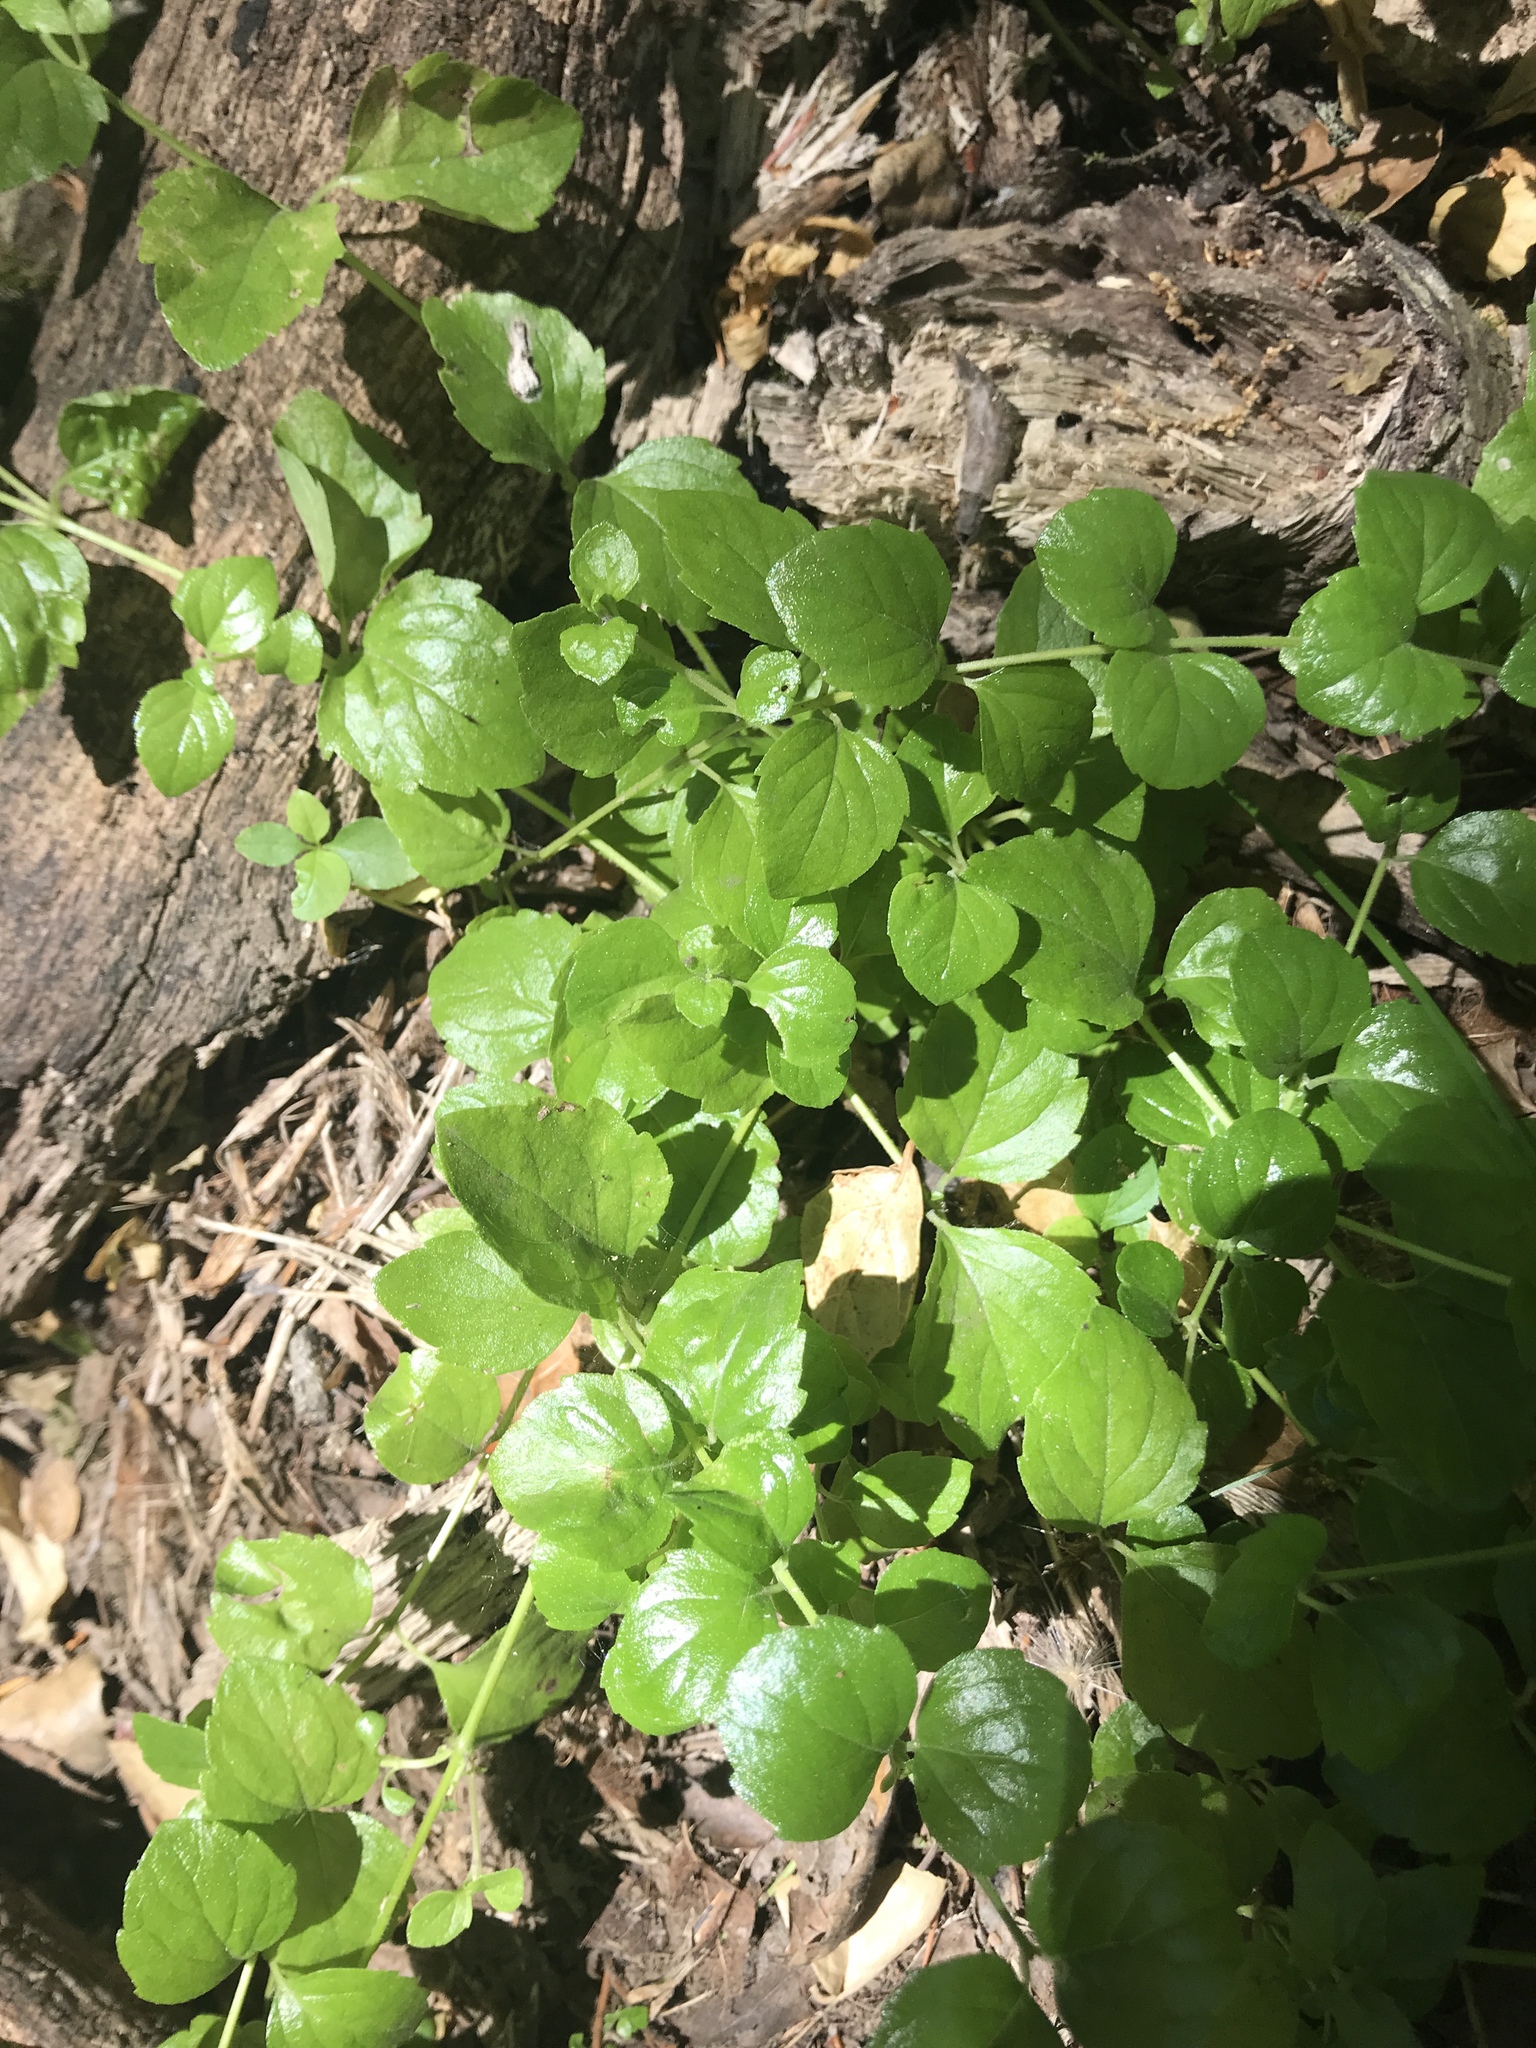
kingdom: Plantae
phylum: Tracheophyta
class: Magnoliopsida
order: Lamiales
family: Lamiaceae
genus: Micromeria
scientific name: Micromeria douglasii
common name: Yerba buena
